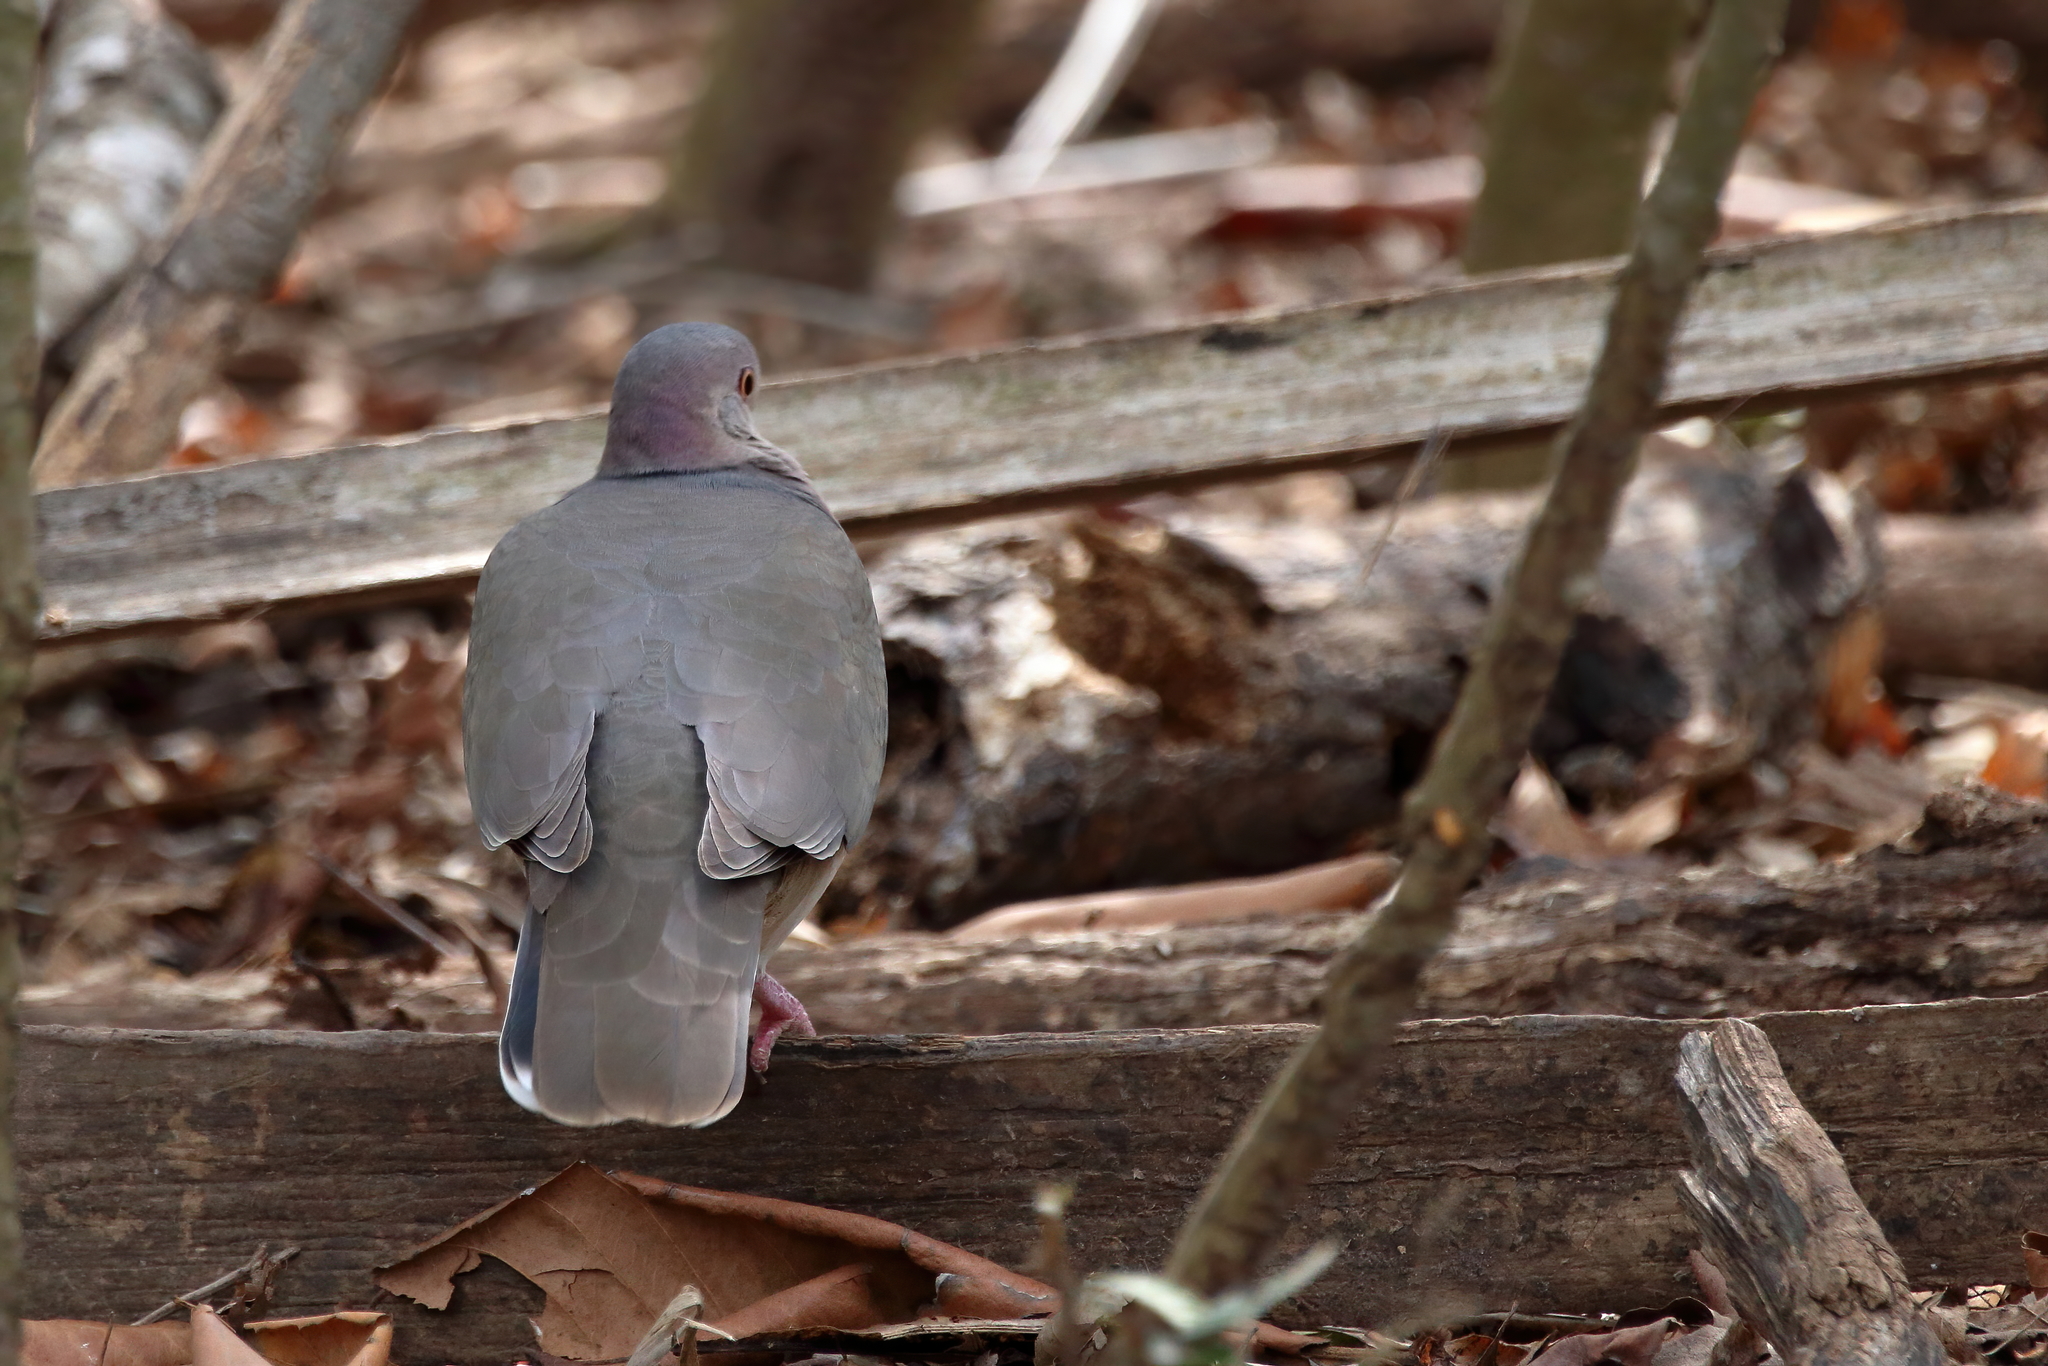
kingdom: Animalia
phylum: Chordata
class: Aves
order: Columbiformes
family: Columbidae
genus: Leptotila
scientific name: Leptotila verreauxi
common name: White-tipped dove
